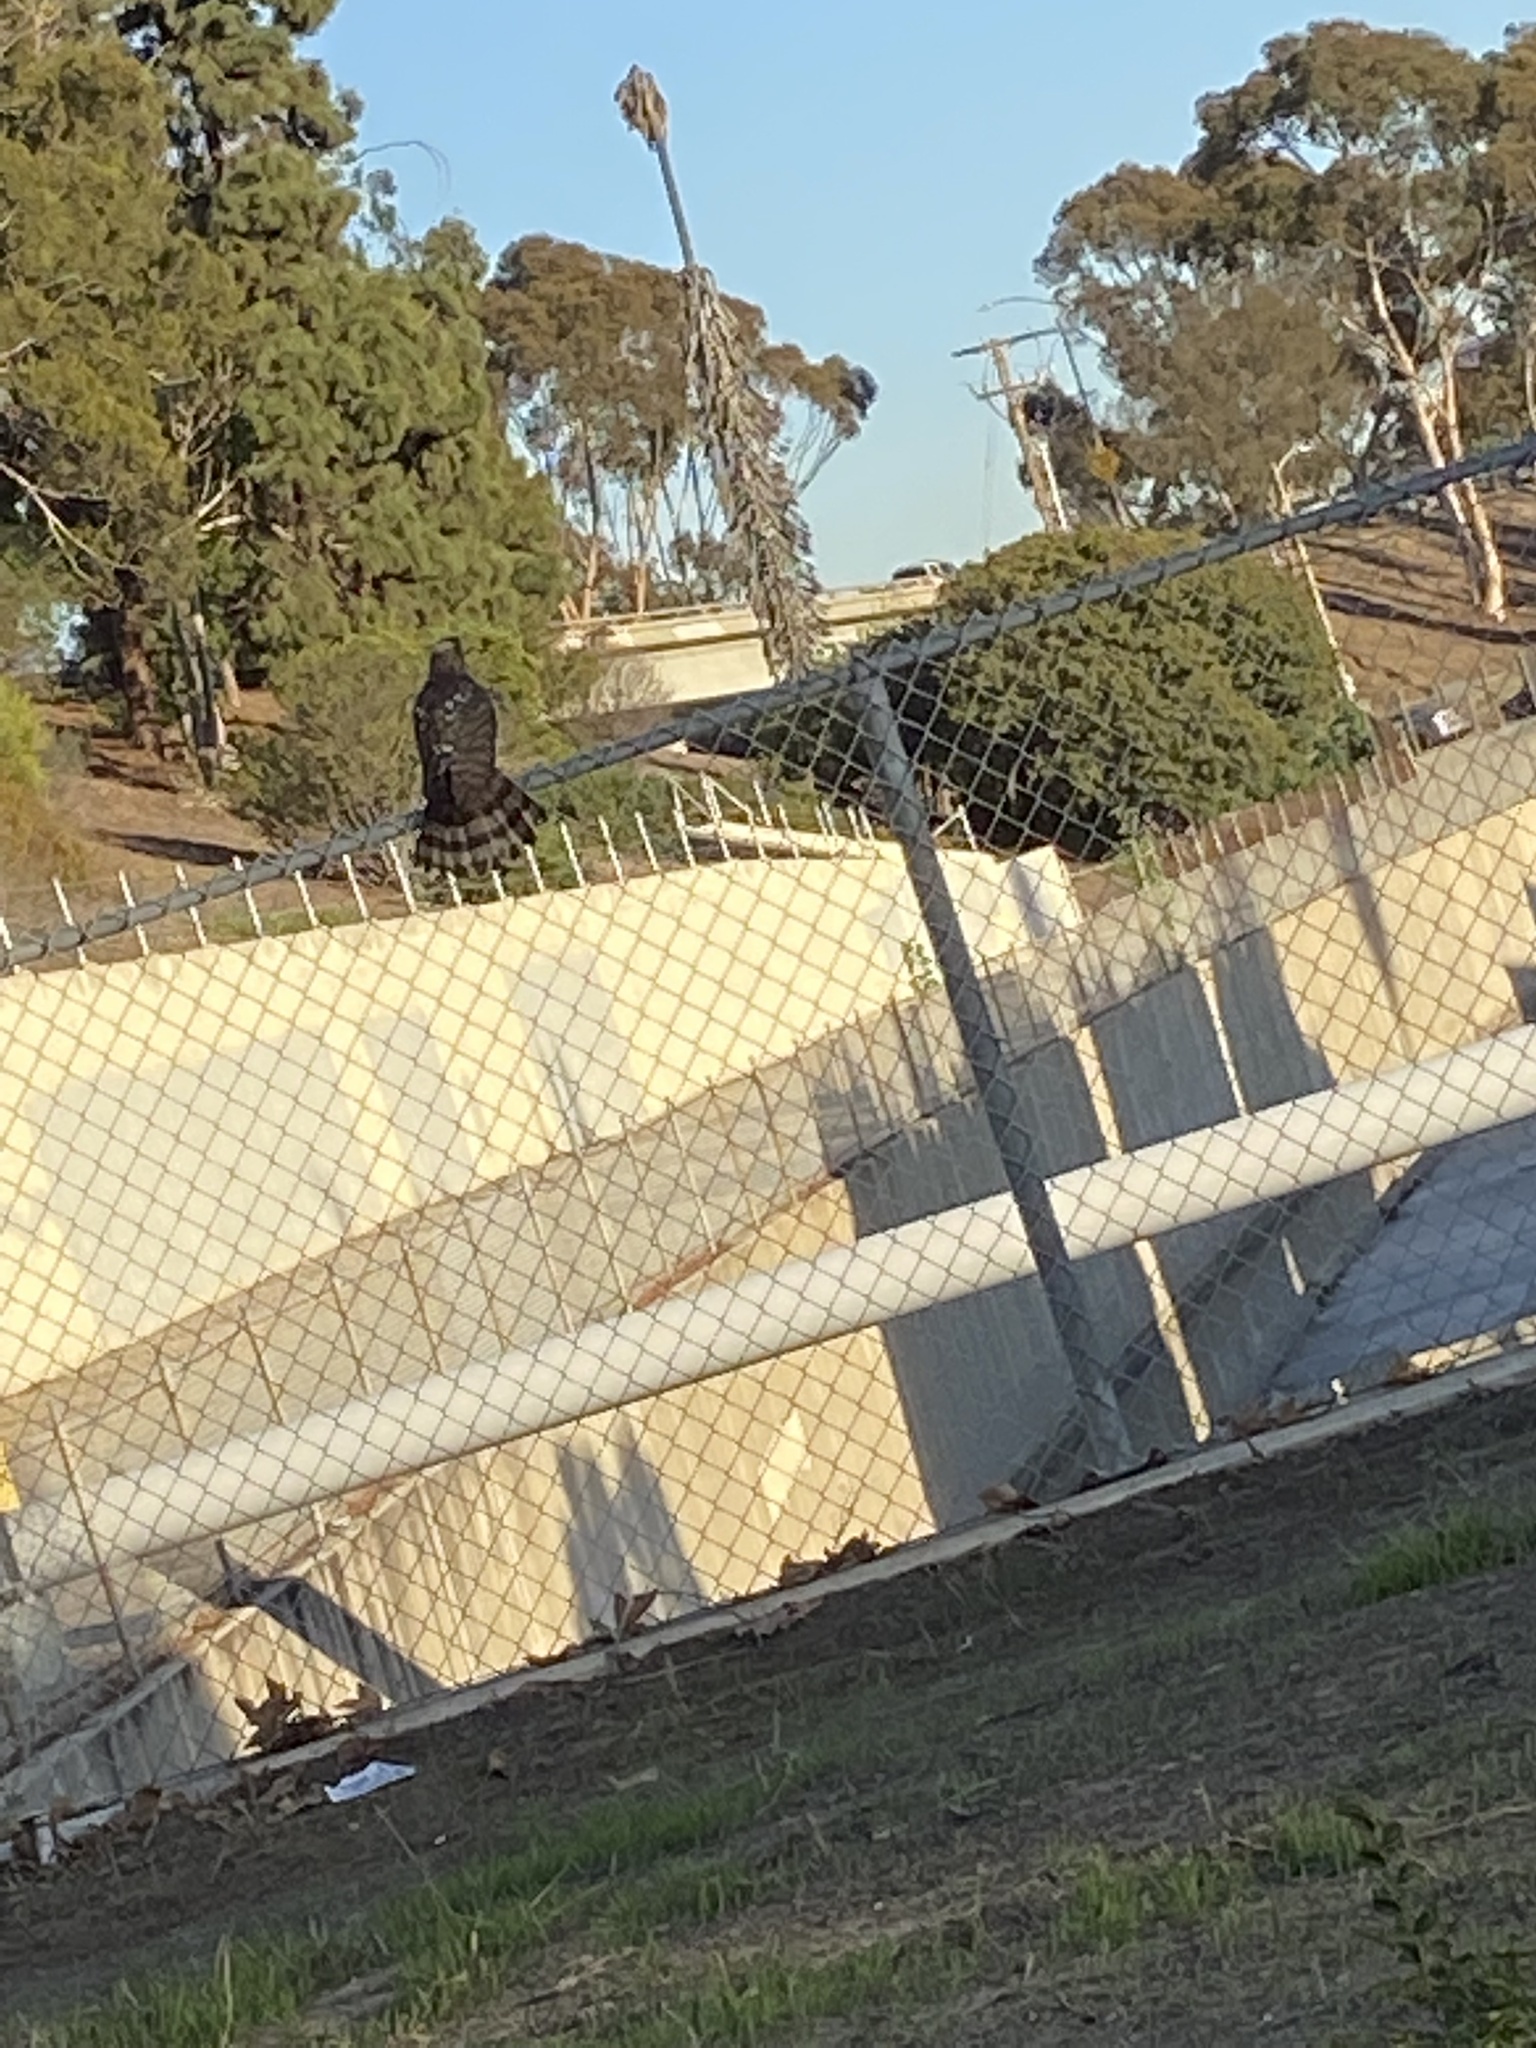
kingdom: Animalia
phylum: Chordata
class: Aves
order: Accipitriformes
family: Accipitridae
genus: Accipiter
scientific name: Accipiter cooperii
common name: Cooper's hawk
